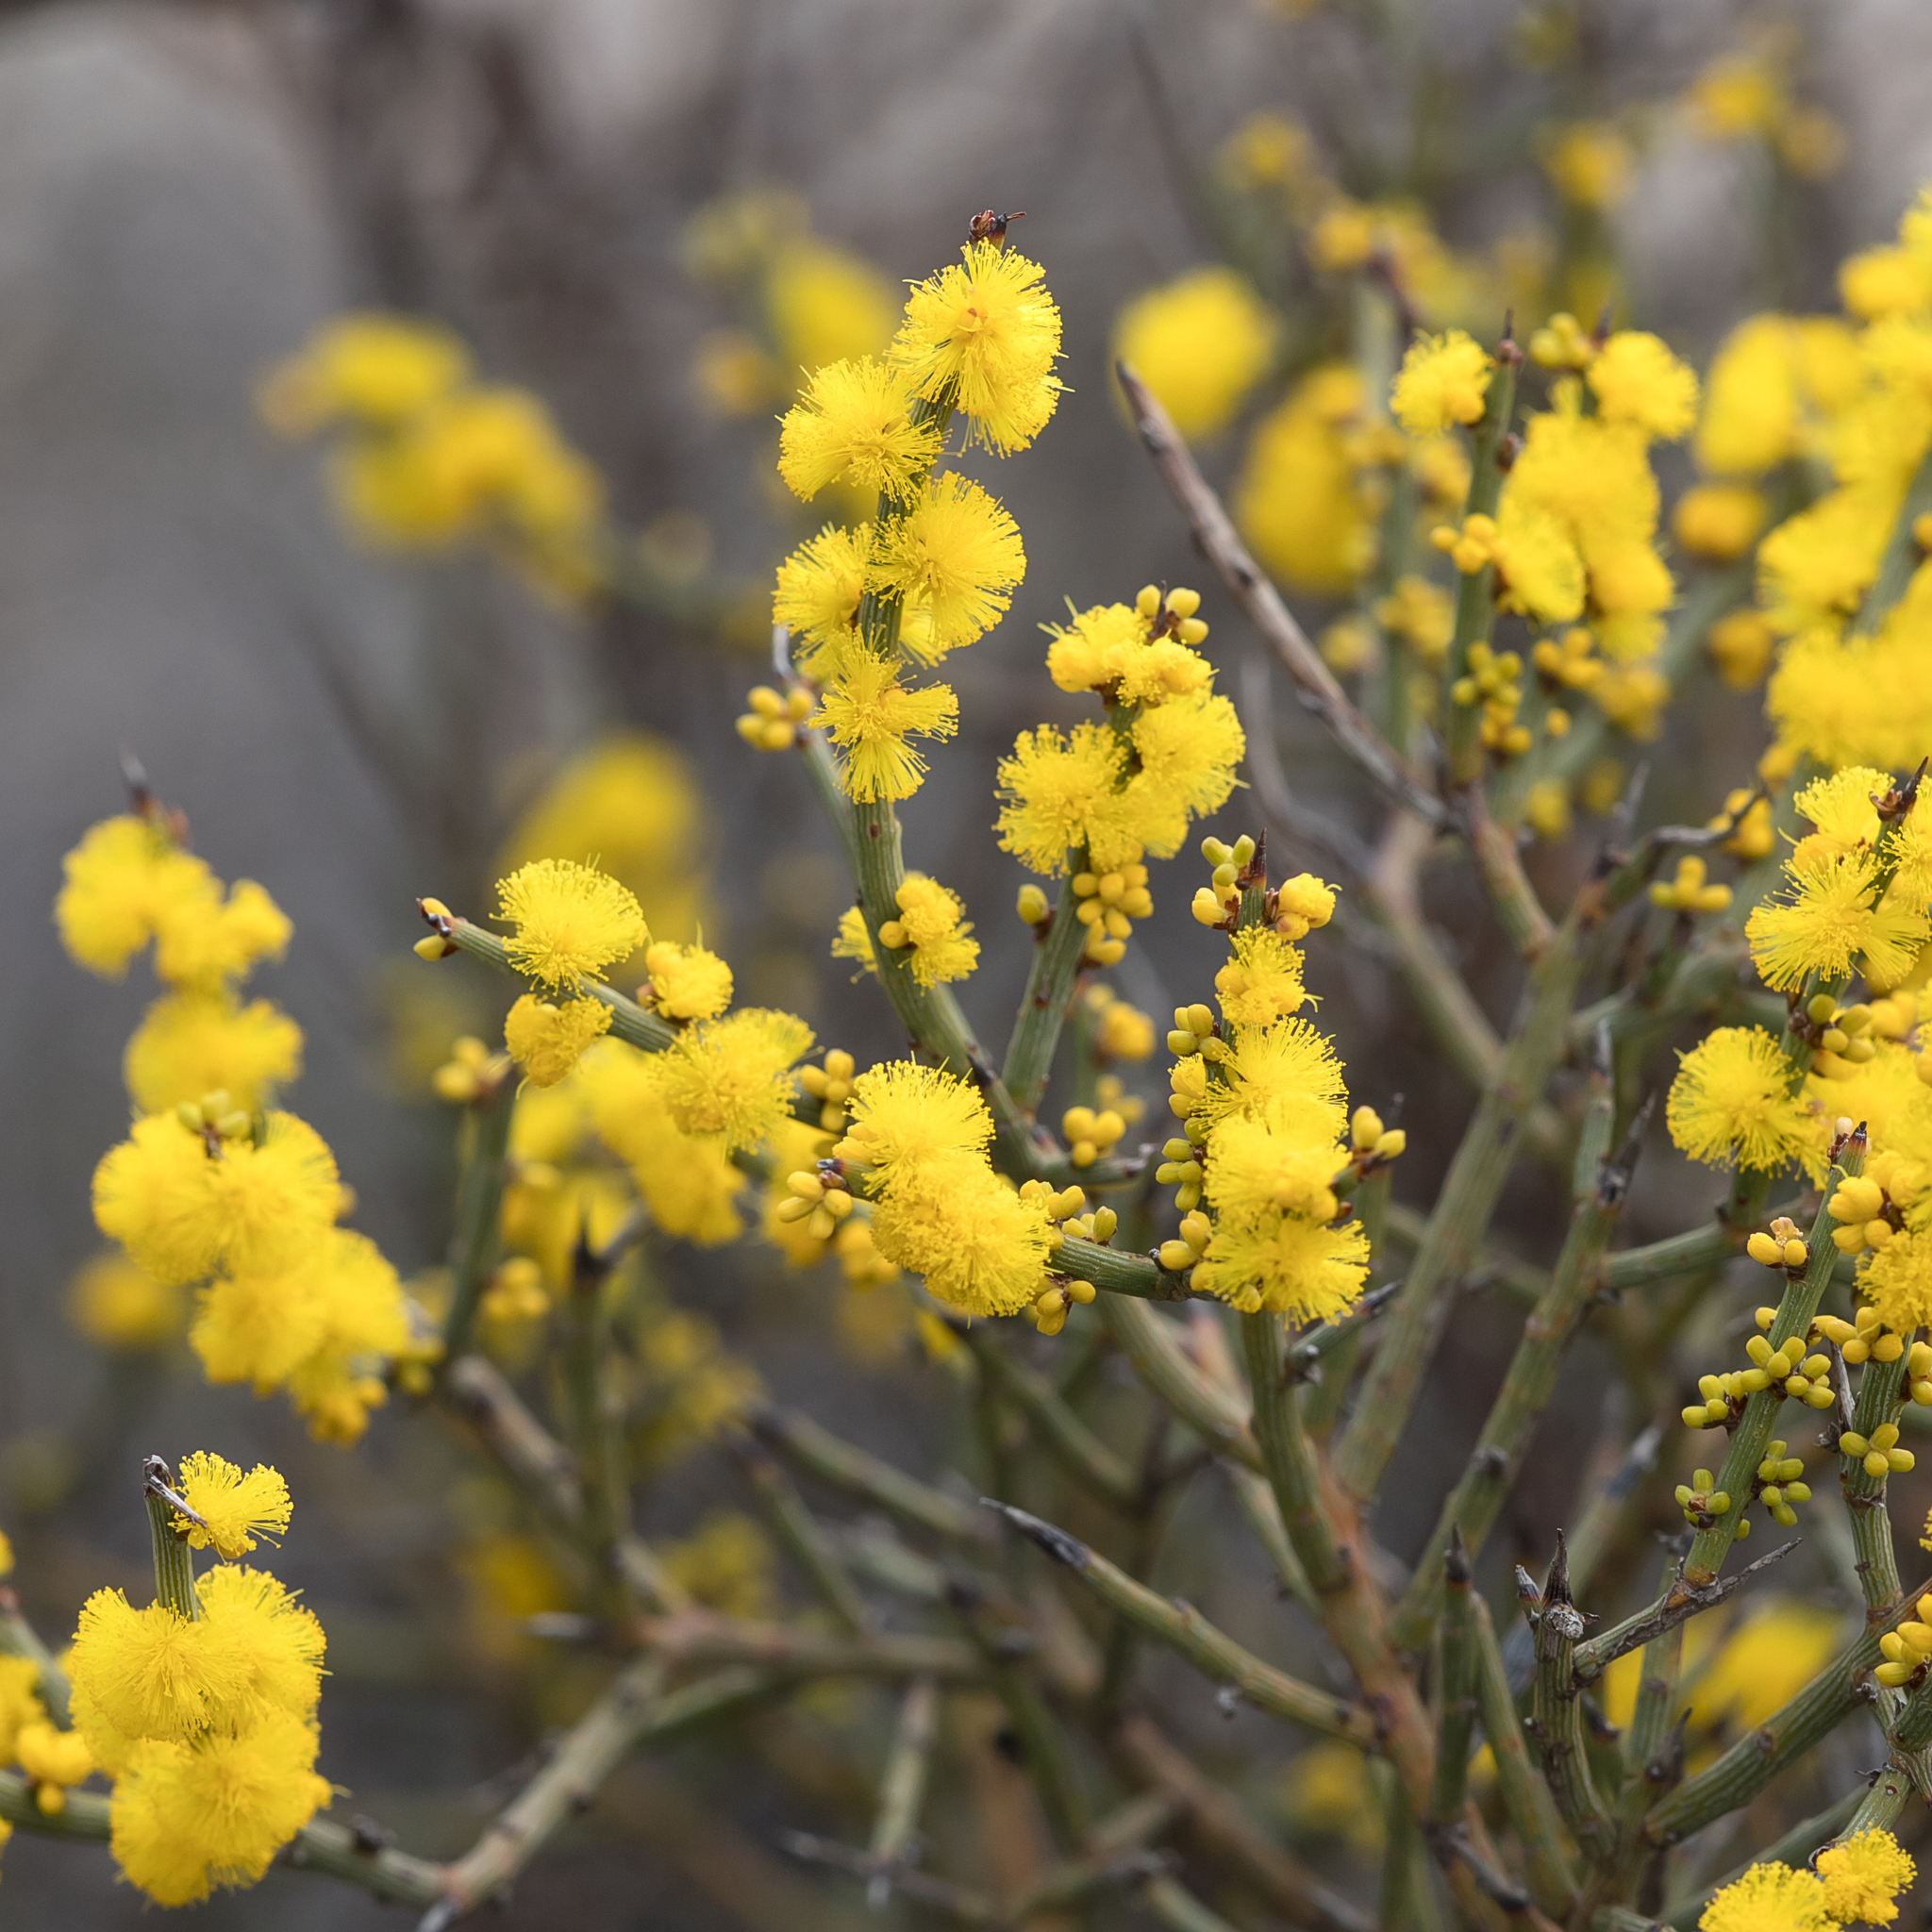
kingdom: Plantae
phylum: Tracheophyta
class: Magnoliopsida
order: Fabales
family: Fabaceae
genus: Acacia
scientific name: Acacia spinescens
